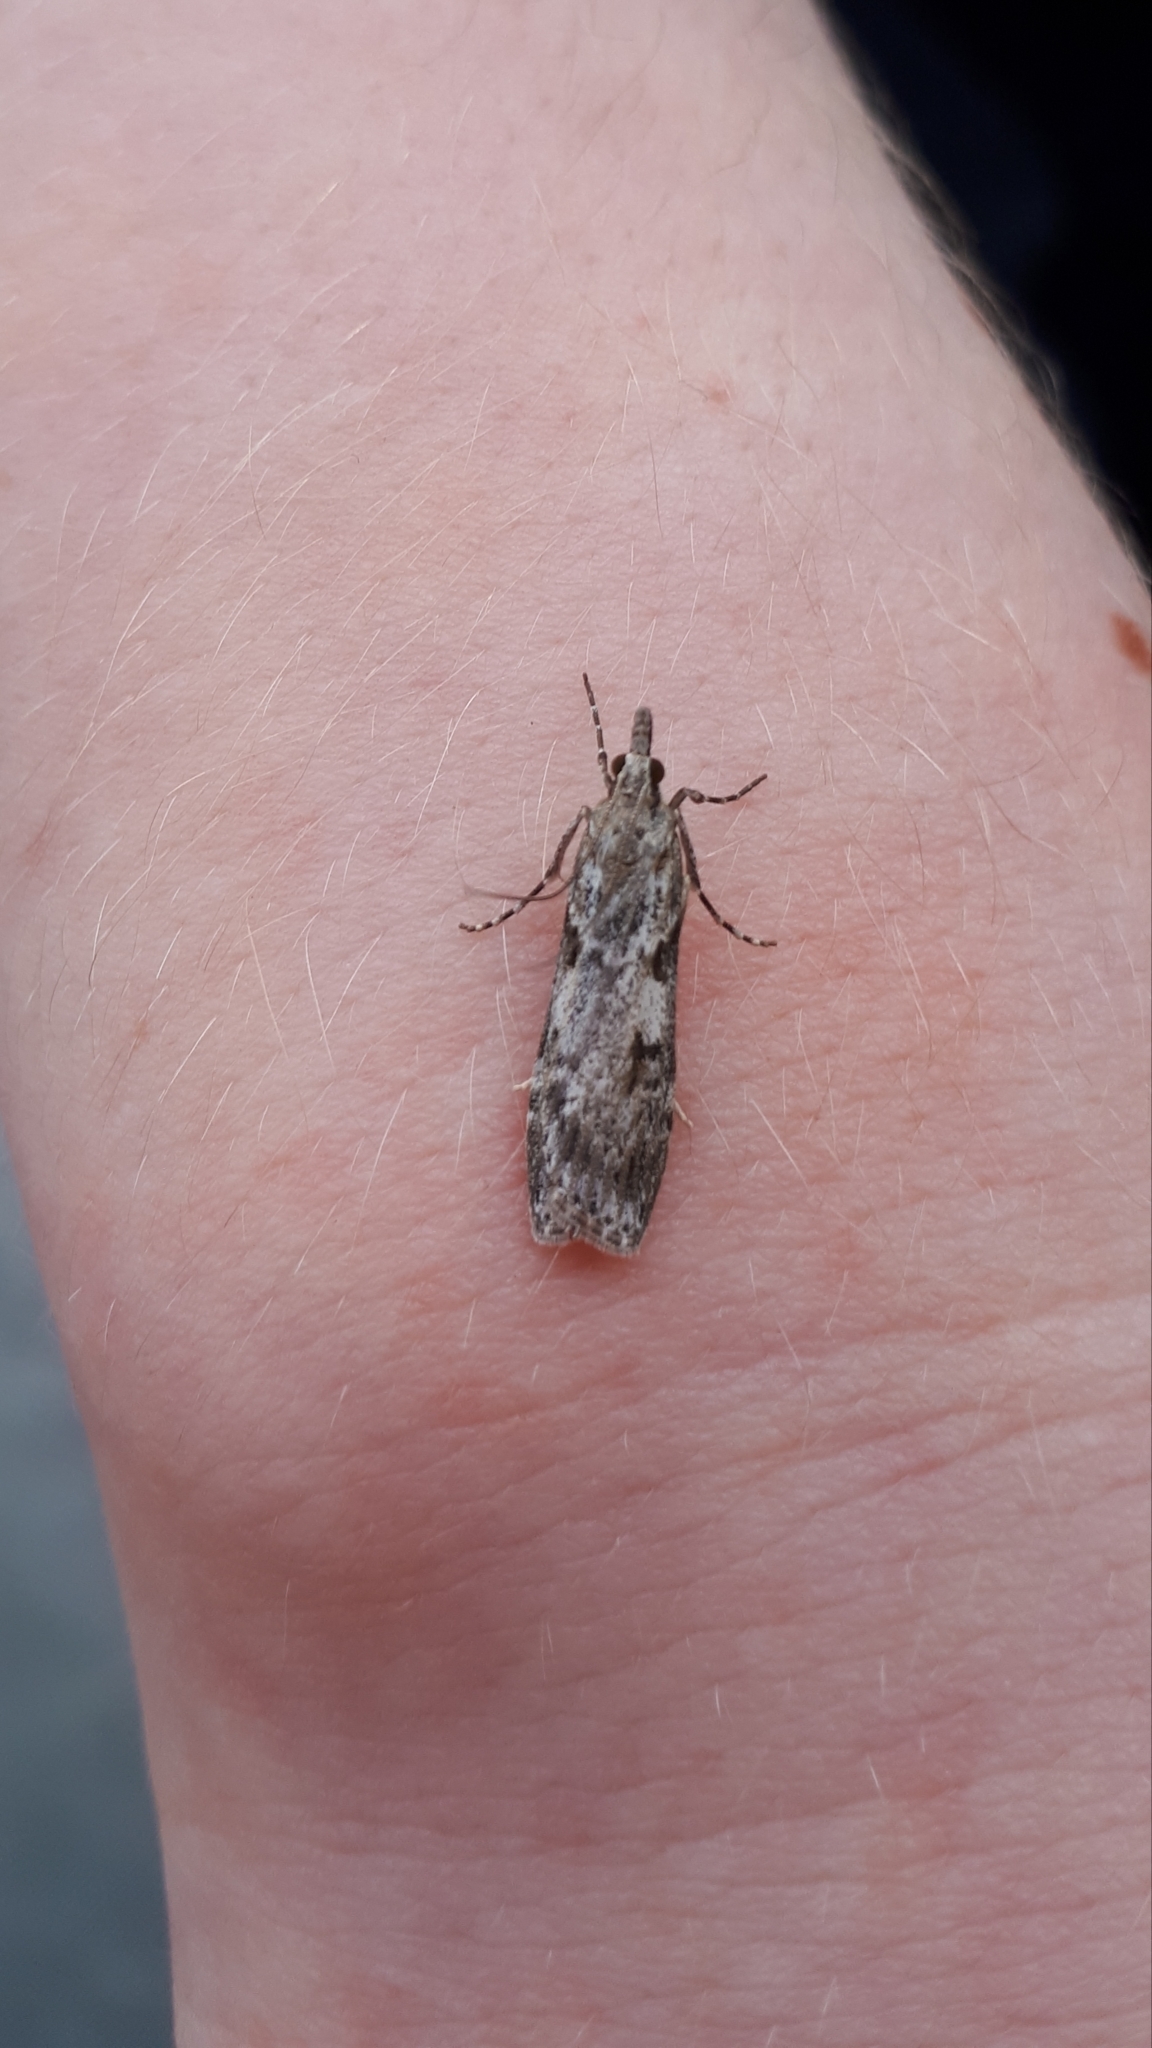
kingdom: Animalia
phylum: Arthropoda
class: Insecta
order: Lepidoptera
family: Crambidae
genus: Scoparia
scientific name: Scoparia halopis
